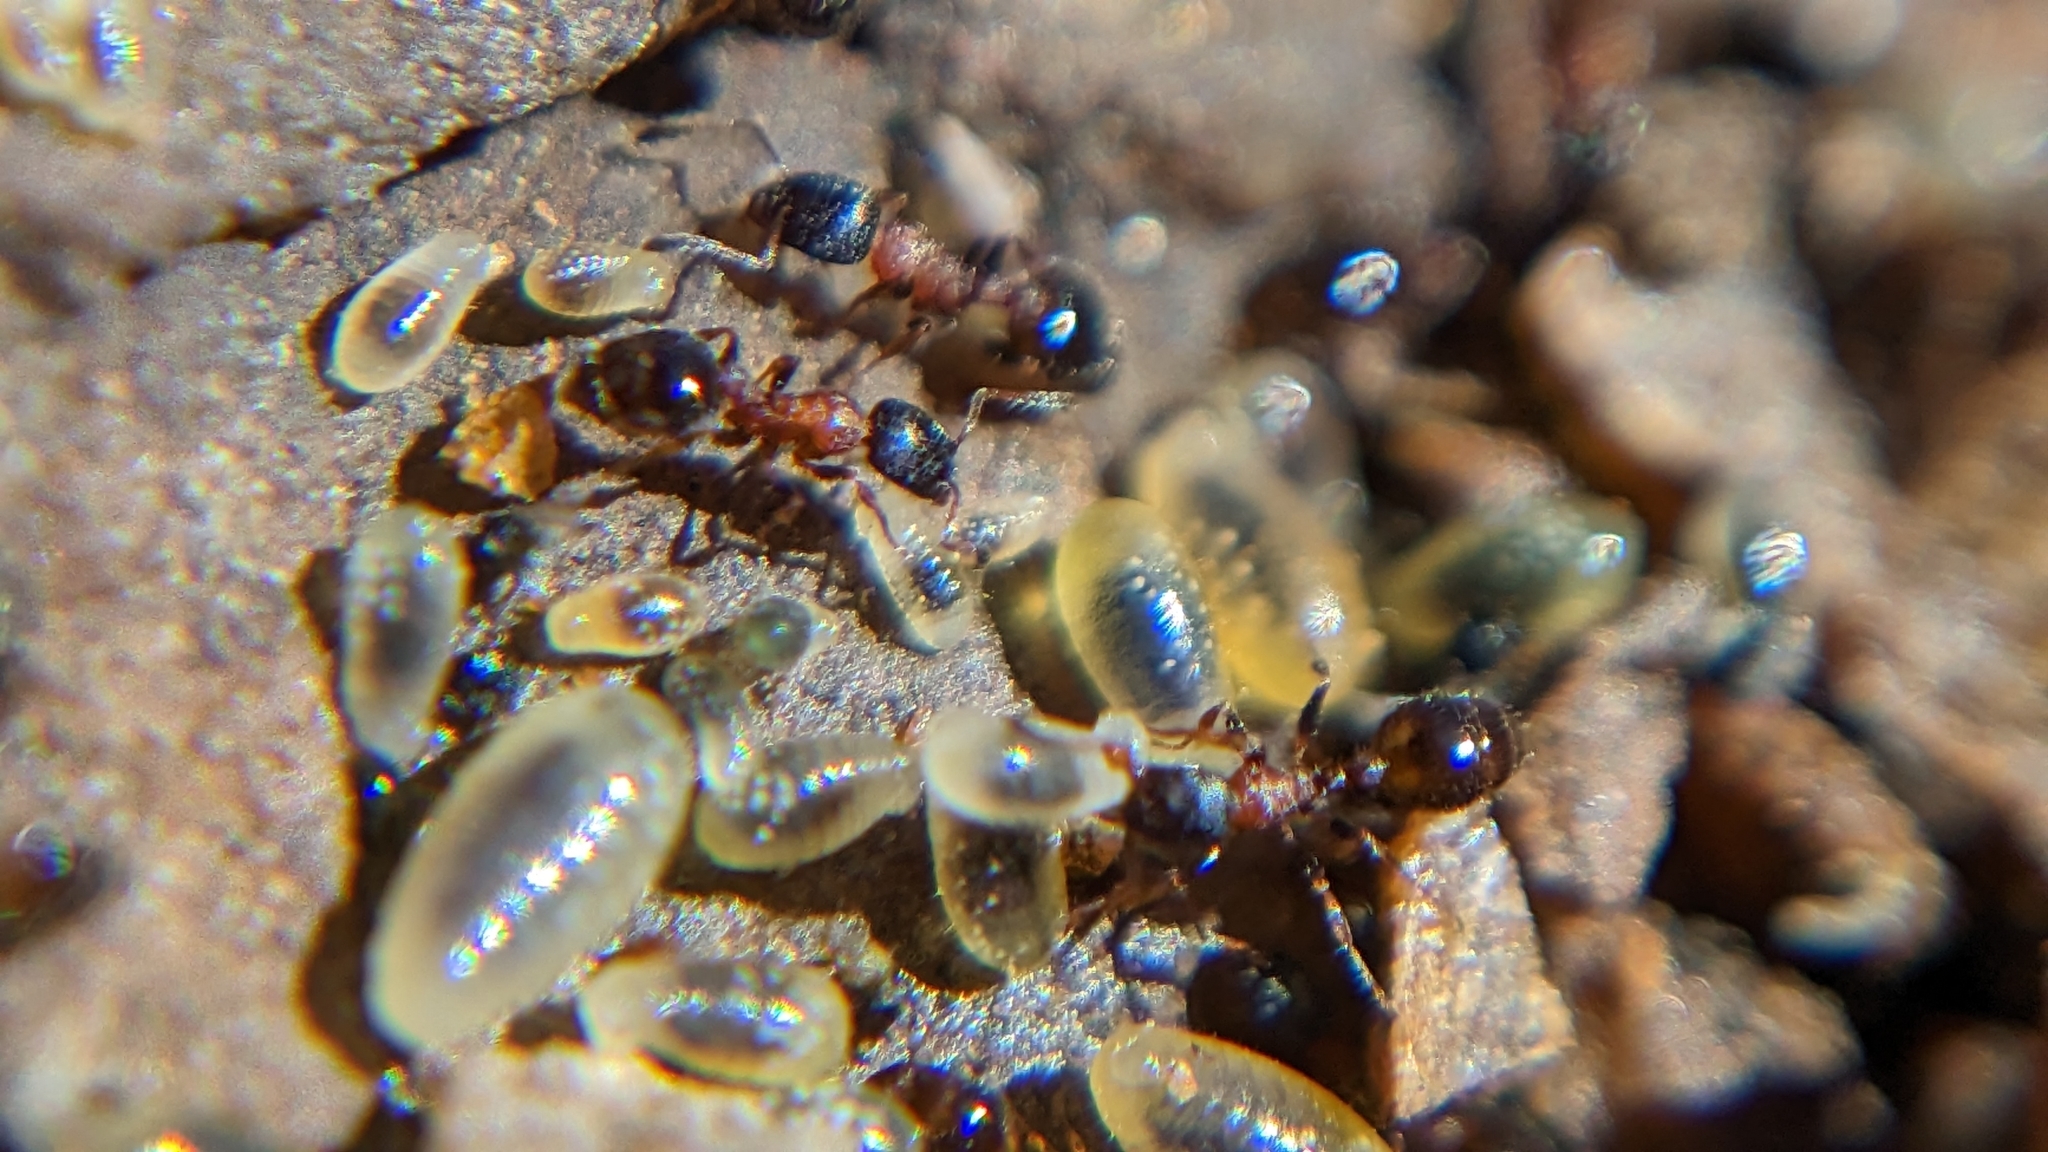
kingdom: Animalia
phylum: Arthropoda
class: Insecta
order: Hymenoptera
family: Formicidae
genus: Leptothorax
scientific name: Leptothorax nigriceps
